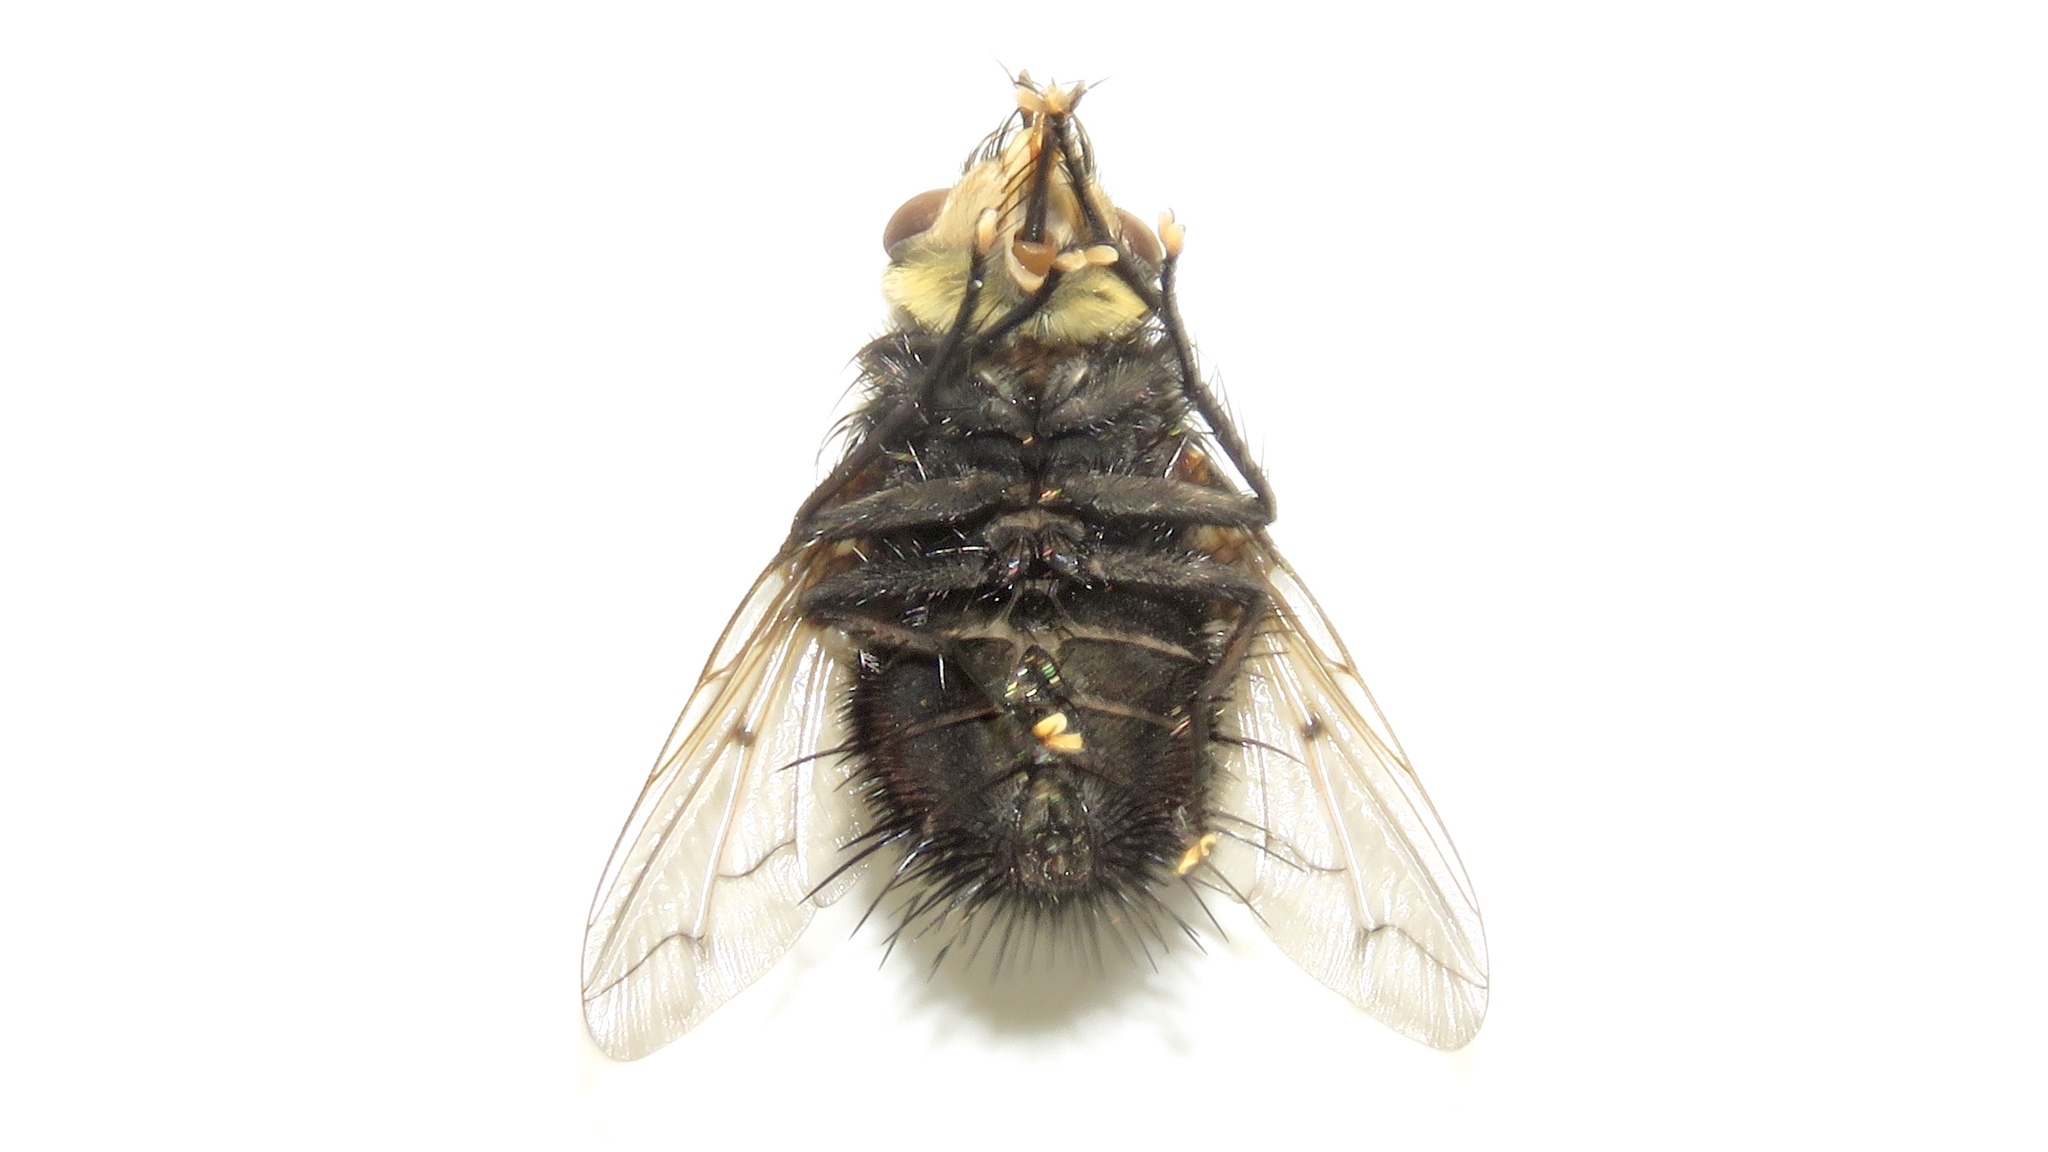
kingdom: Animalia
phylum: Arthropoda
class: Insecta
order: Diptera
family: Tachinidae
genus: Pararchytas
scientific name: Pararchytas decisus
